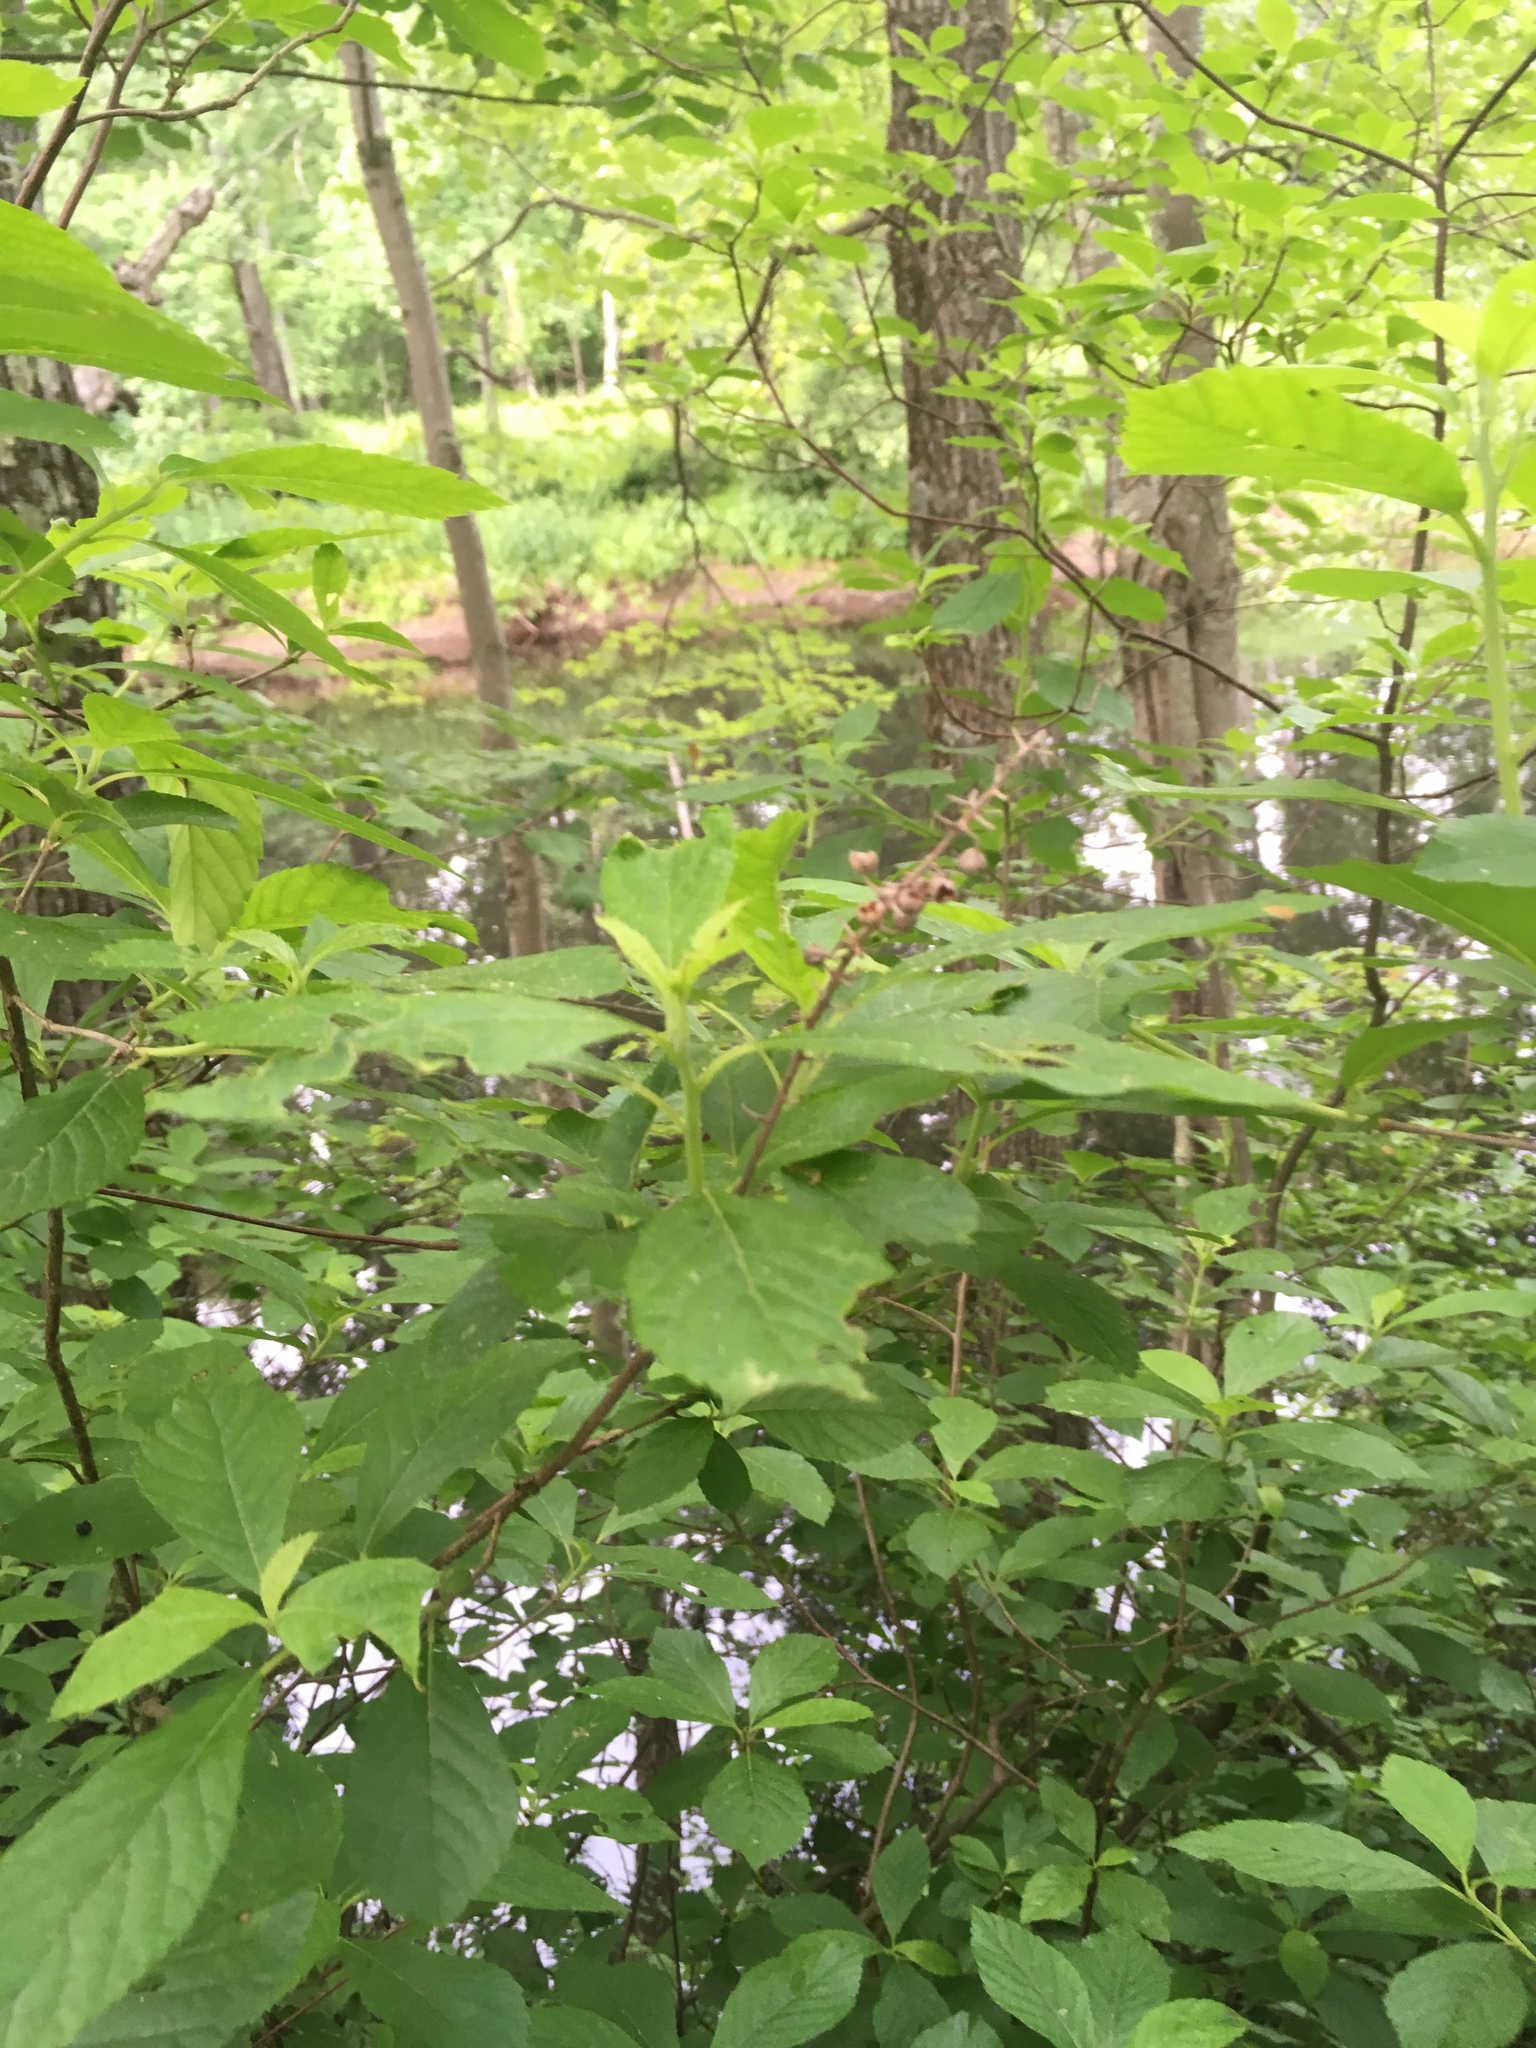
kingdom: Plantae
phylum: Tracheophyta
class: Magnoliopsida
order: Ericales
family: Clethraceae
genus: Clethra
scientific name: Clethra alnifolia
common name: Sweet pepperbush
